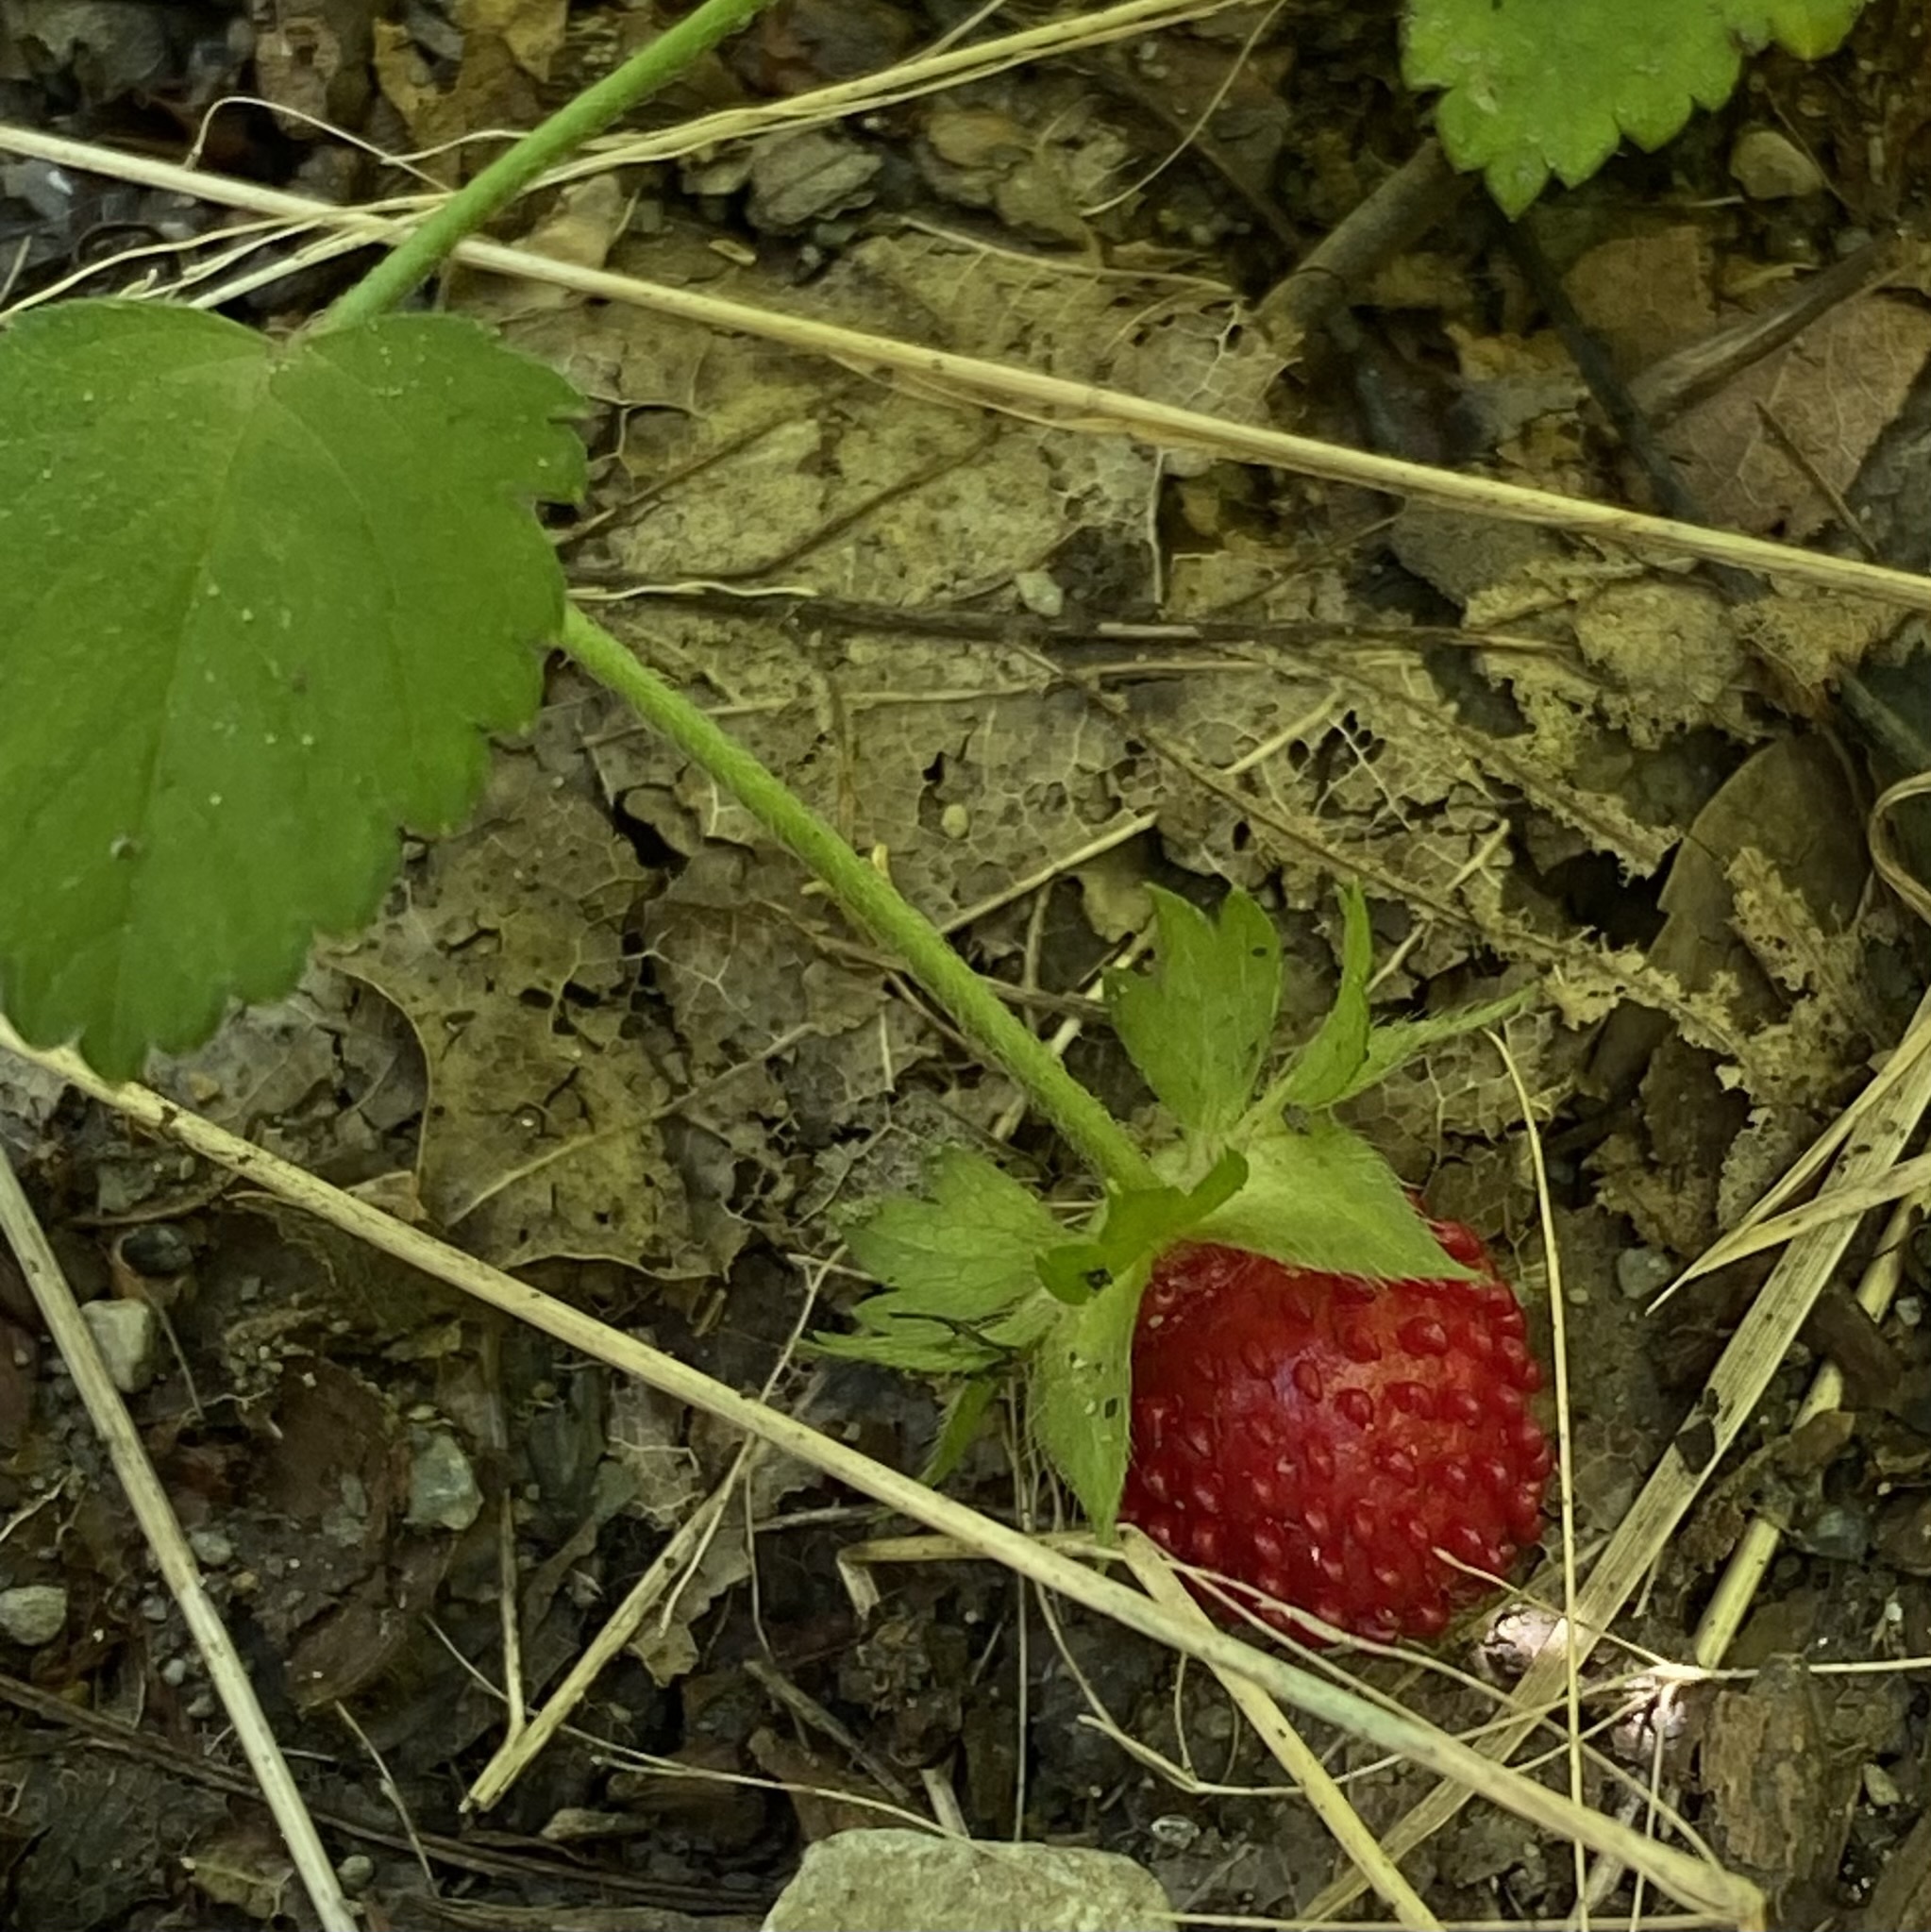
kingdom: Plantae
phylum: Tracheophyta
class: Magnoliopsida
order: Rosales
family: Rosaceae
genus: Potentilla
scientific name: Potentilla indica
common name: Yellow-flowered strawberry
